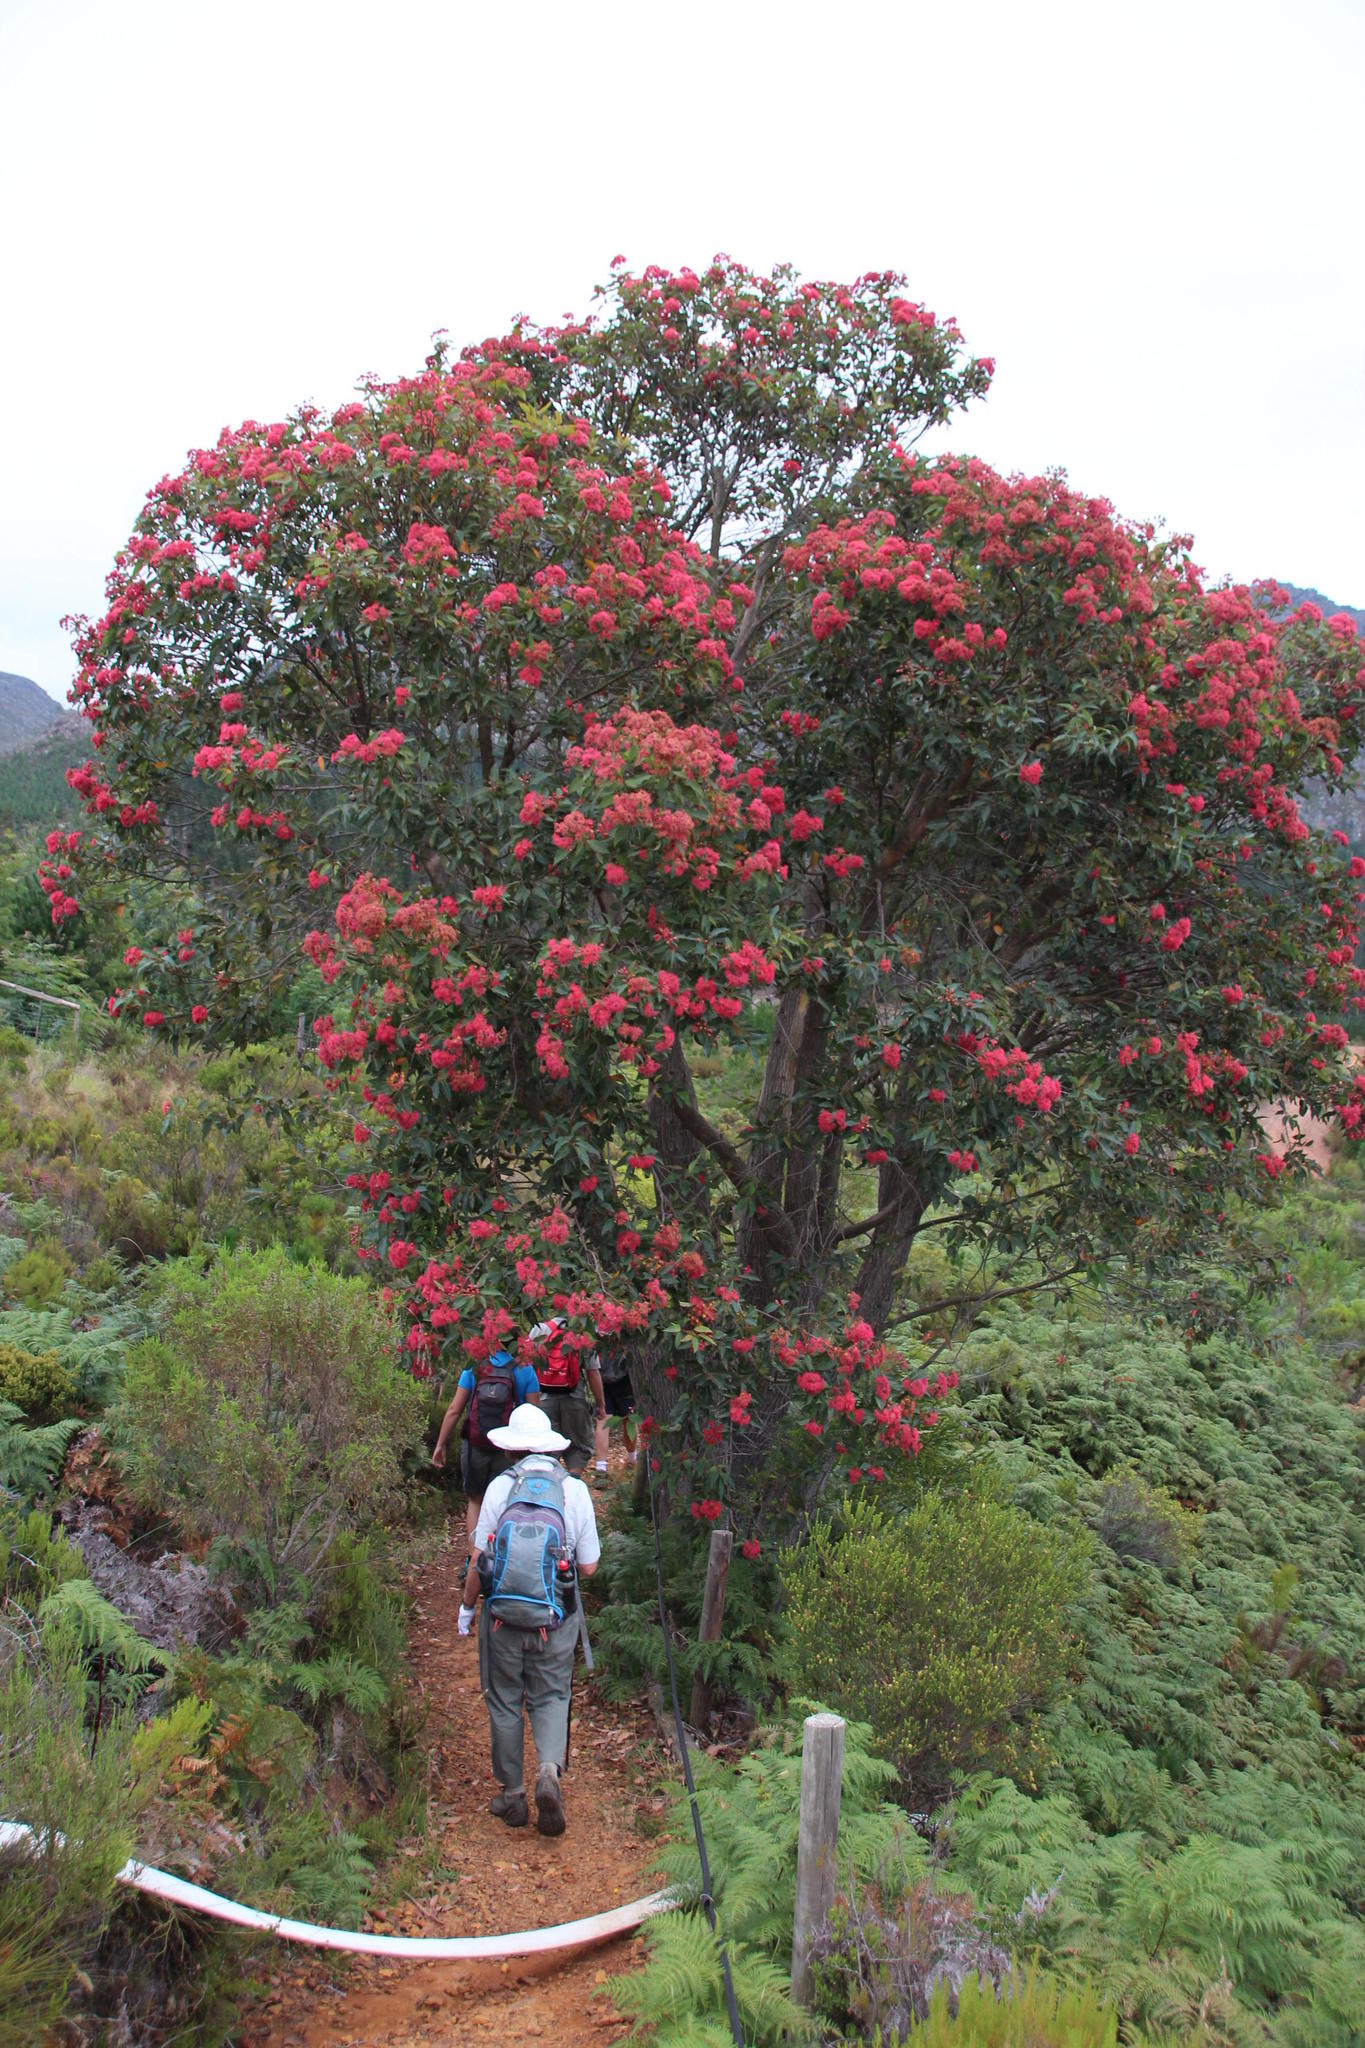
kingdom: Plantae
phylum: Tracheophyta
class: Magnoliopsida
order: Myrtales
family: Myrtaceae
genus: Corymbia
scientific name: Corymbia ficifolia
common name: Redflower gum
